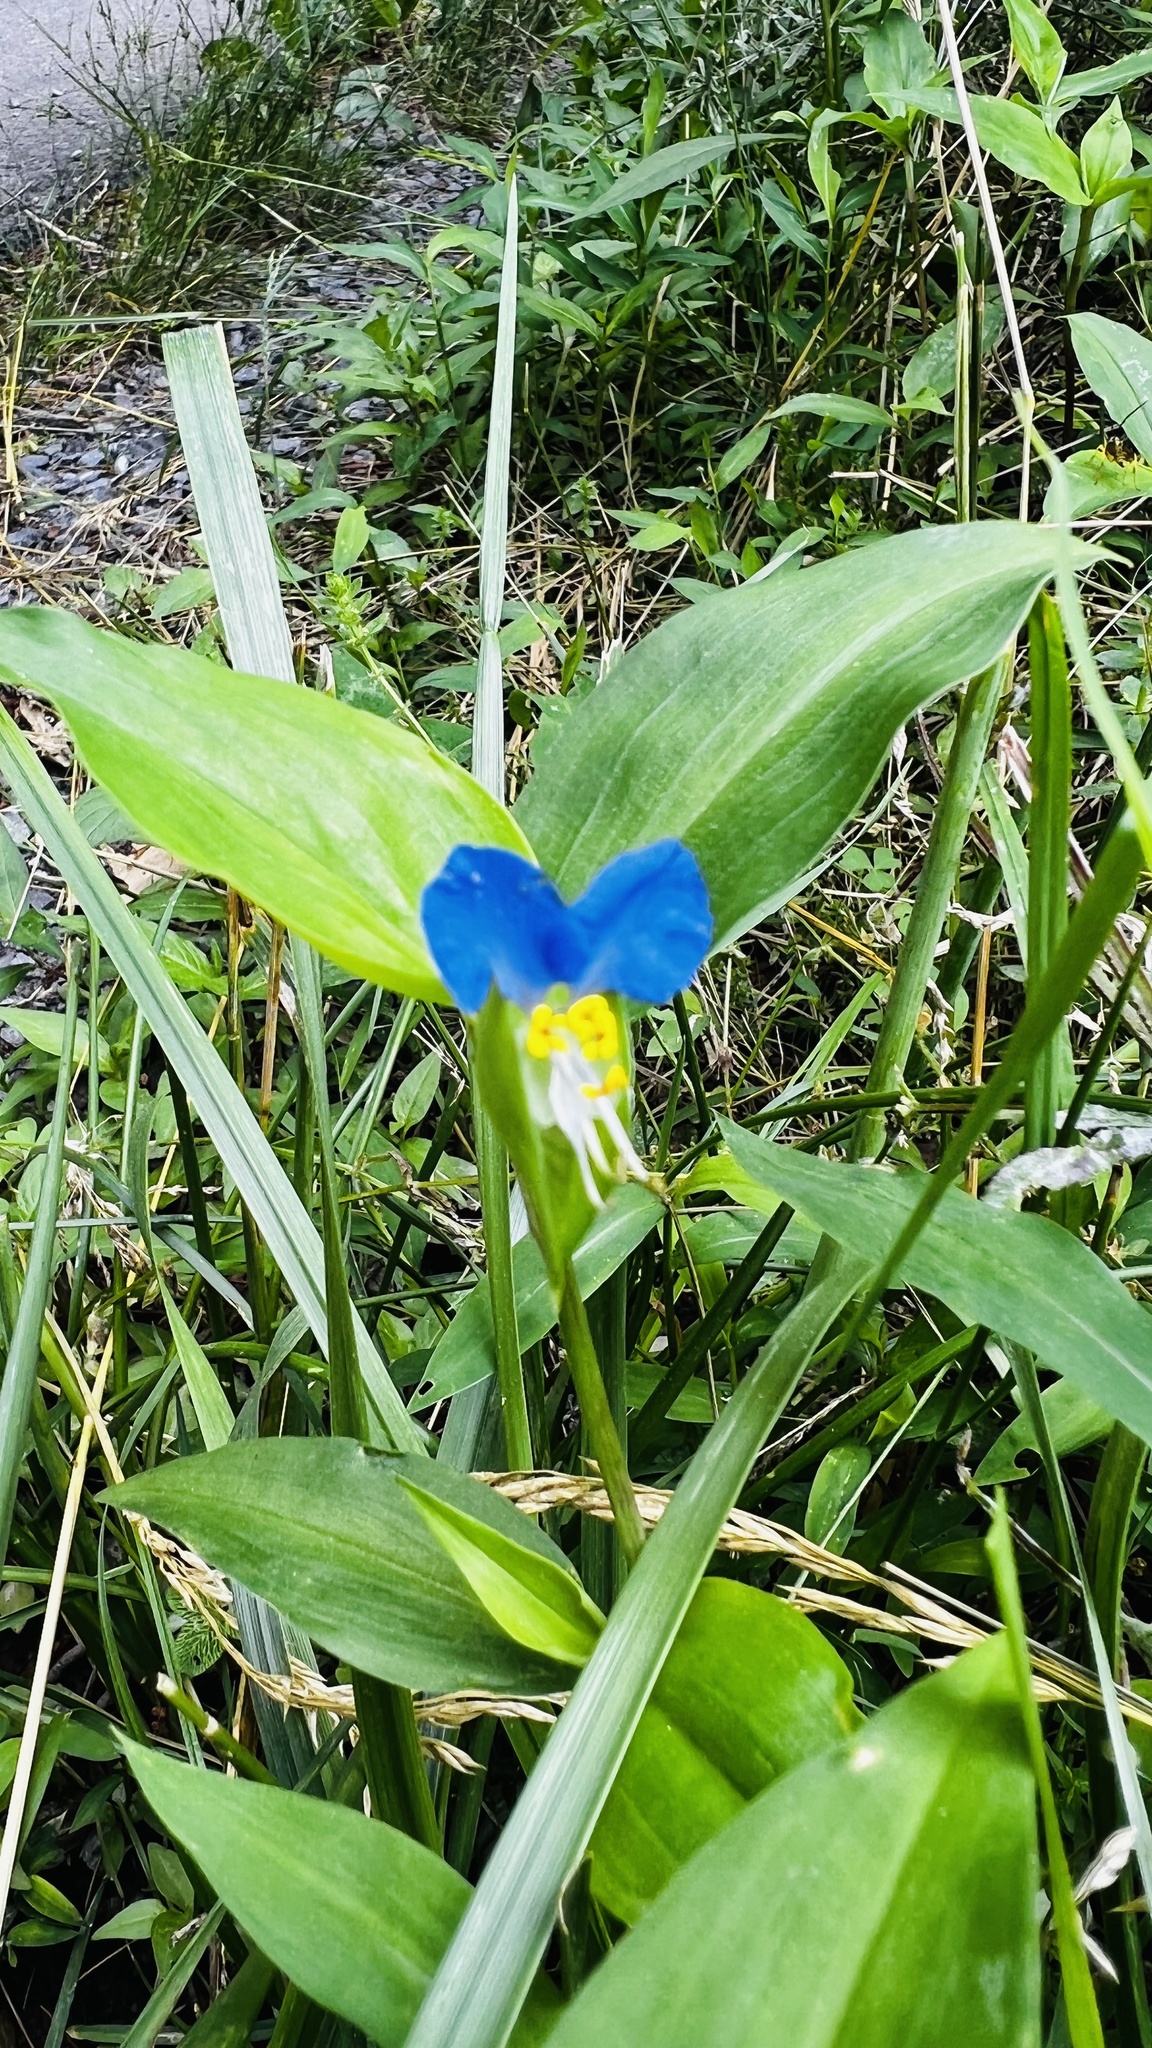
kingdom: Plantae
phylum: Tracheophyta
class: Liliopsida
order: Commelinales
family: Commelinaceae
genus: Commelina
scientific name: Commelina communis
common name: Asiatic dayflower
